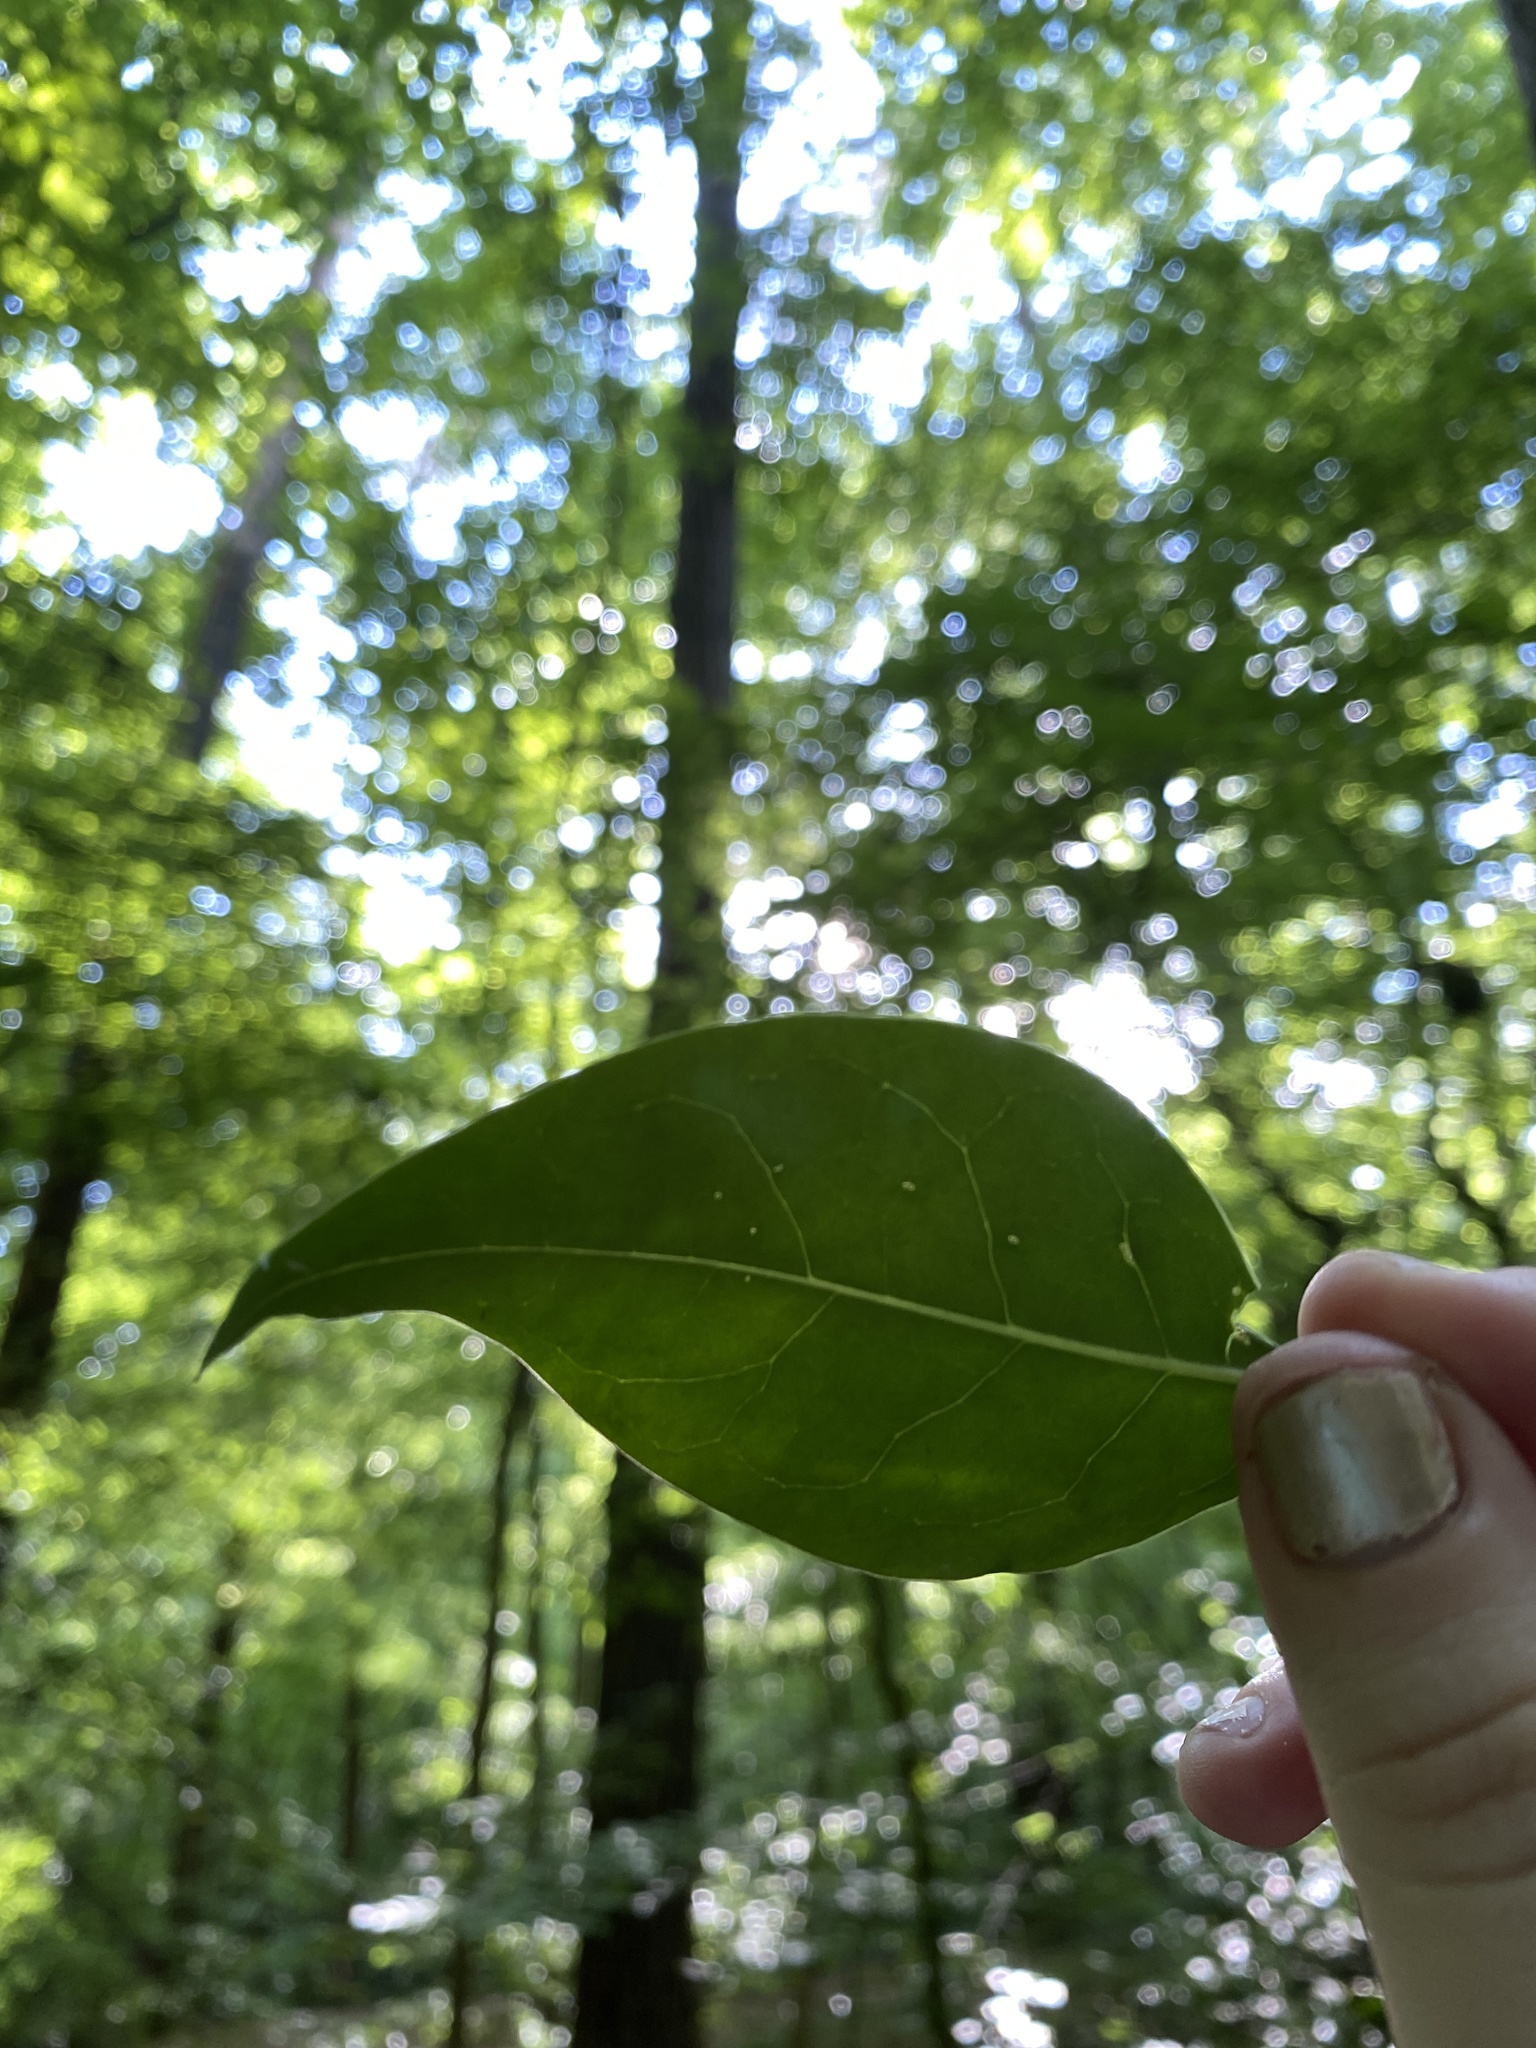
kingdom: Plantae
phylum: Tracheophyta
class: Magnoliopsida
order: Lamiales
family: Oleaceae
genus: Ligustrum
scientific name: Ligustrum lucidum
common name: Glossy privet
